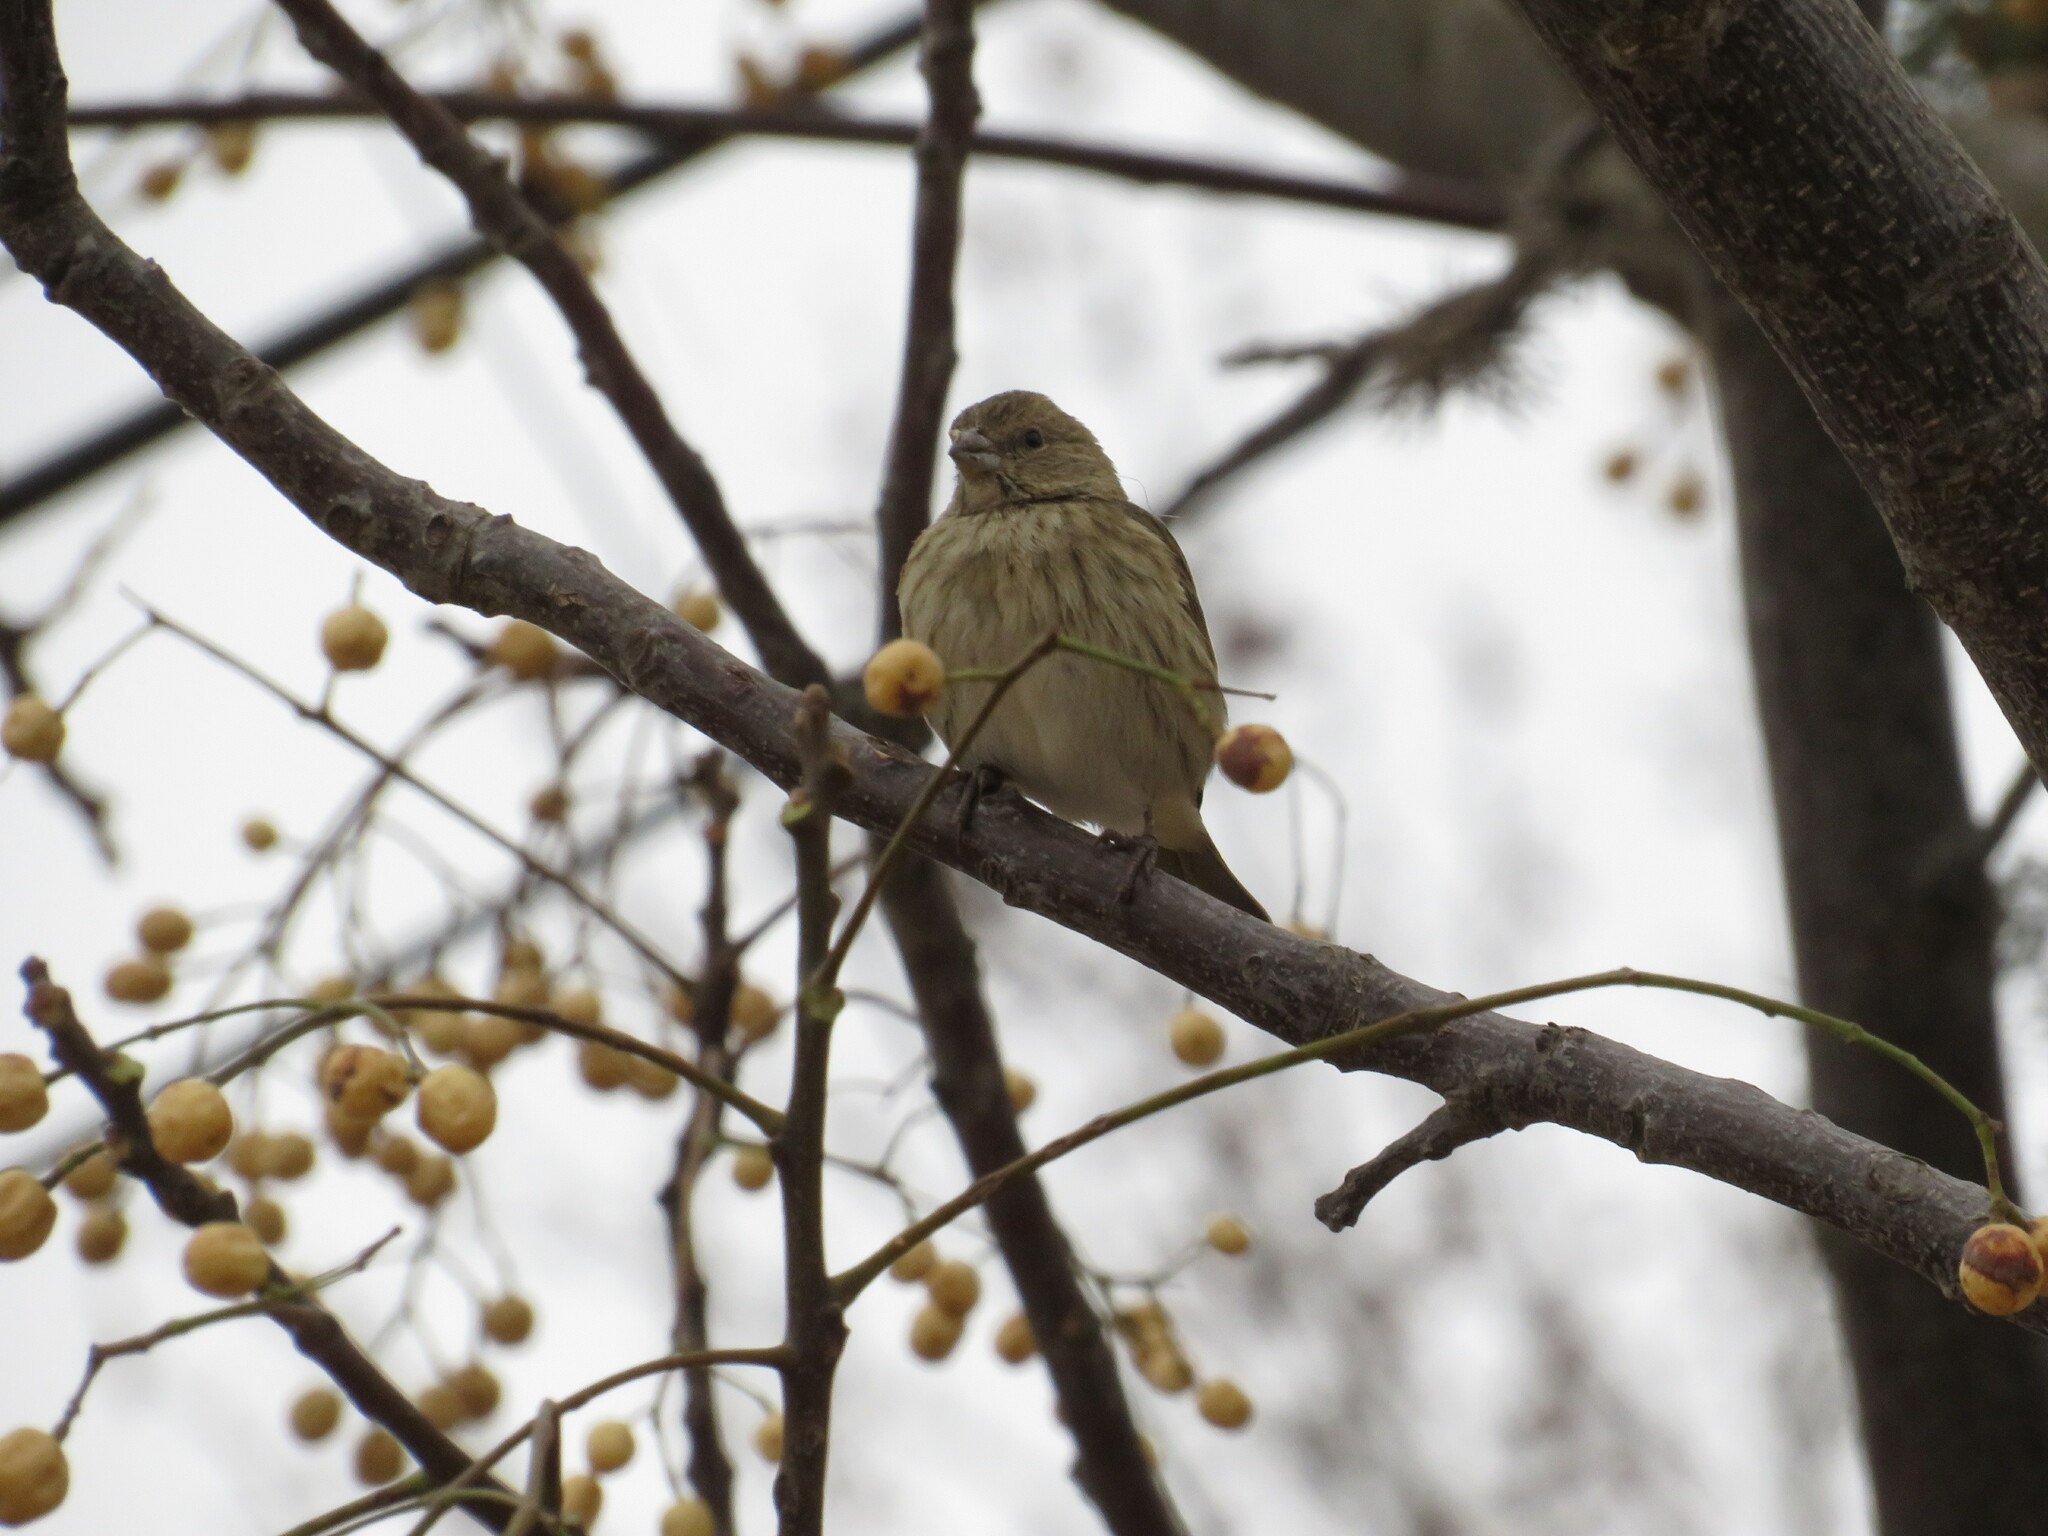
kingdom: Animalia
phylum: Chordata
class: Aves
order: Passeriformes
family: Thraupidae
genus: Sicalis
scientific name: Sicalis flaveola
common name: Saffron finch
